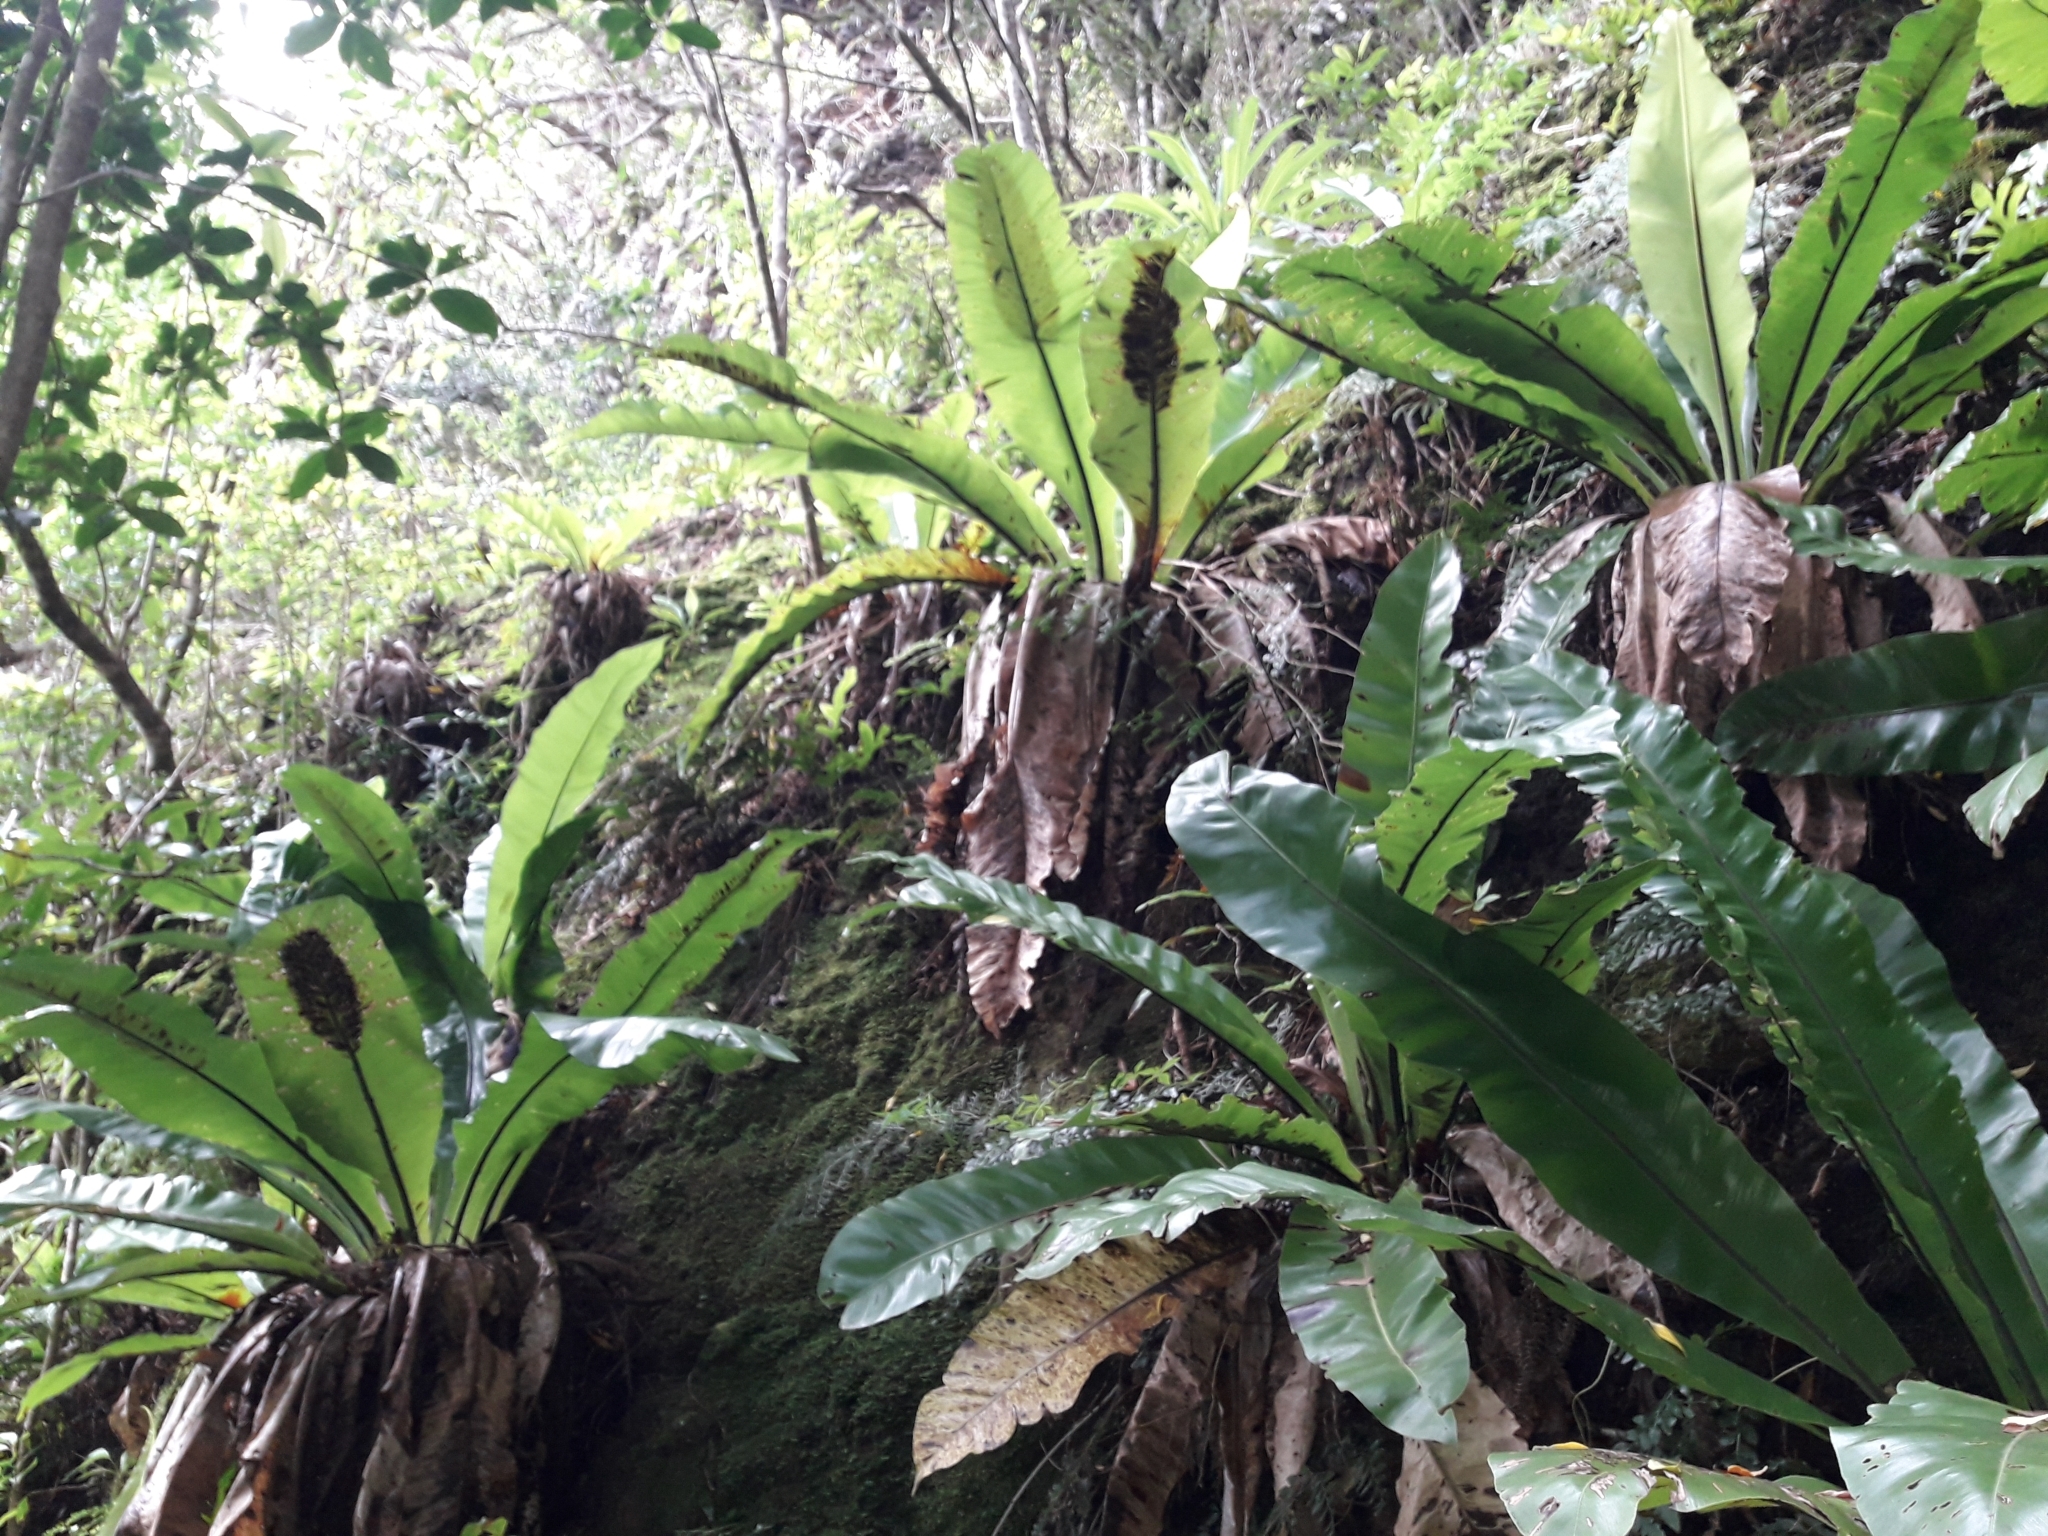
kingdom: Plantae
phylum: Tracheophyta
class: Polypodiopsida
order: Polypodiales
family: Aspleniaceae
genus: Asplenium
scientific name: Asplenium australasicum
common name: Bird's-nest fern
